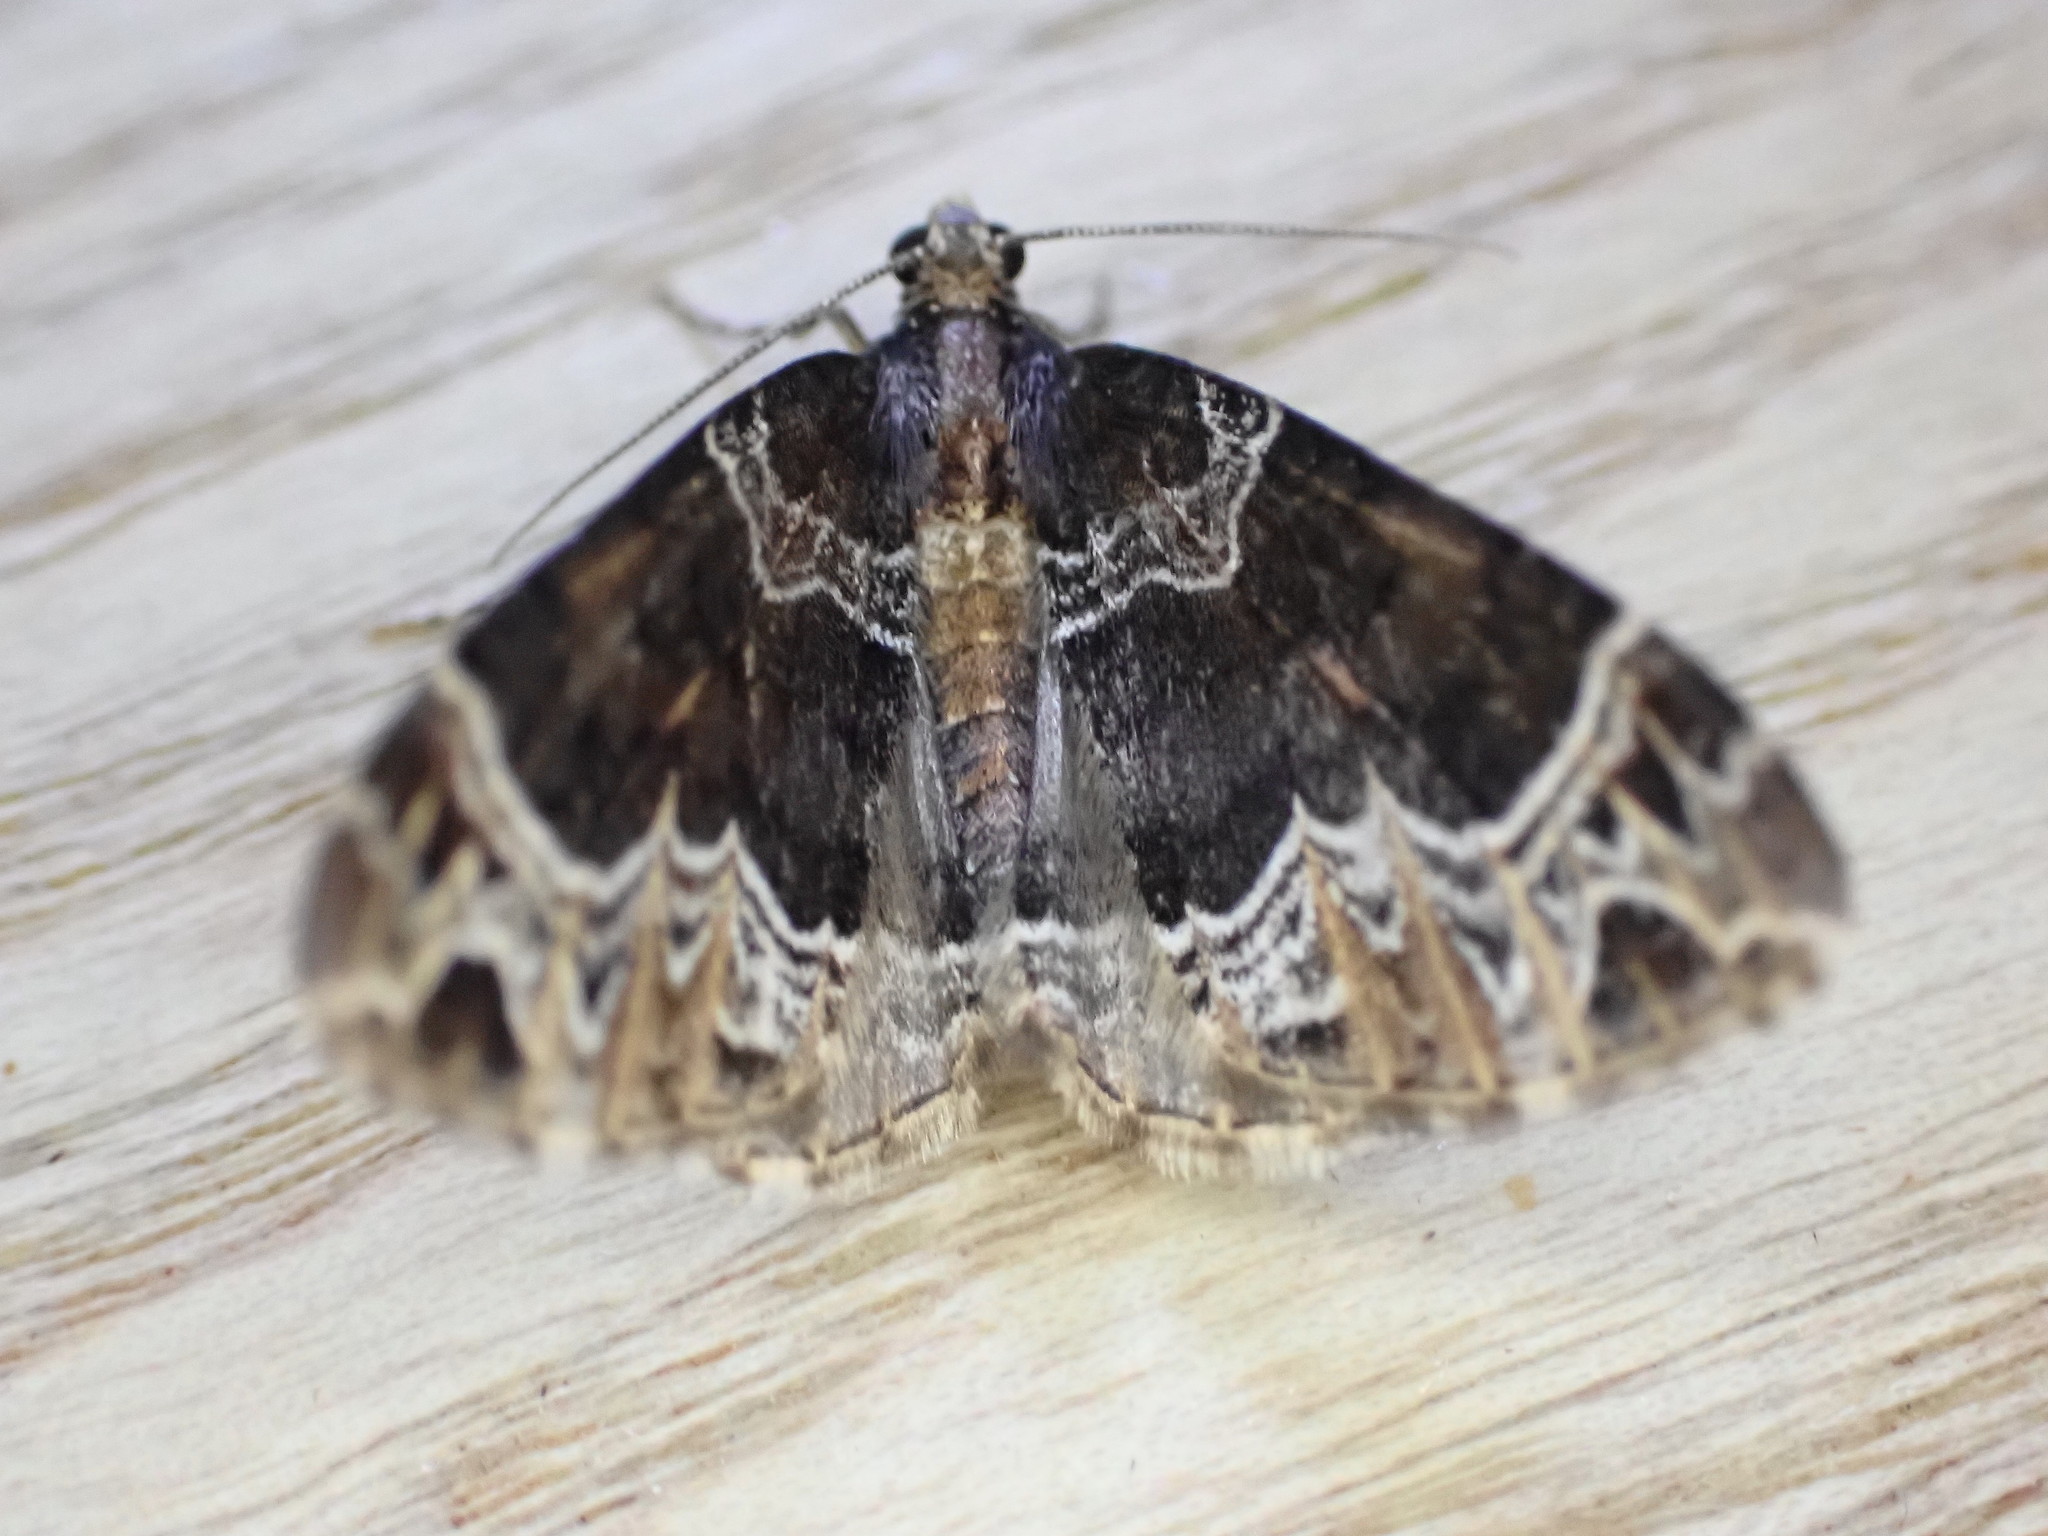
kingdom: Animalia
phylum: Arthropoda
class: Insecta
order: Lepidoptera
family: Geometridae
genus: Ecliptopera
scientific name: Ecliptopera silaceata
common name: Small phoenix
